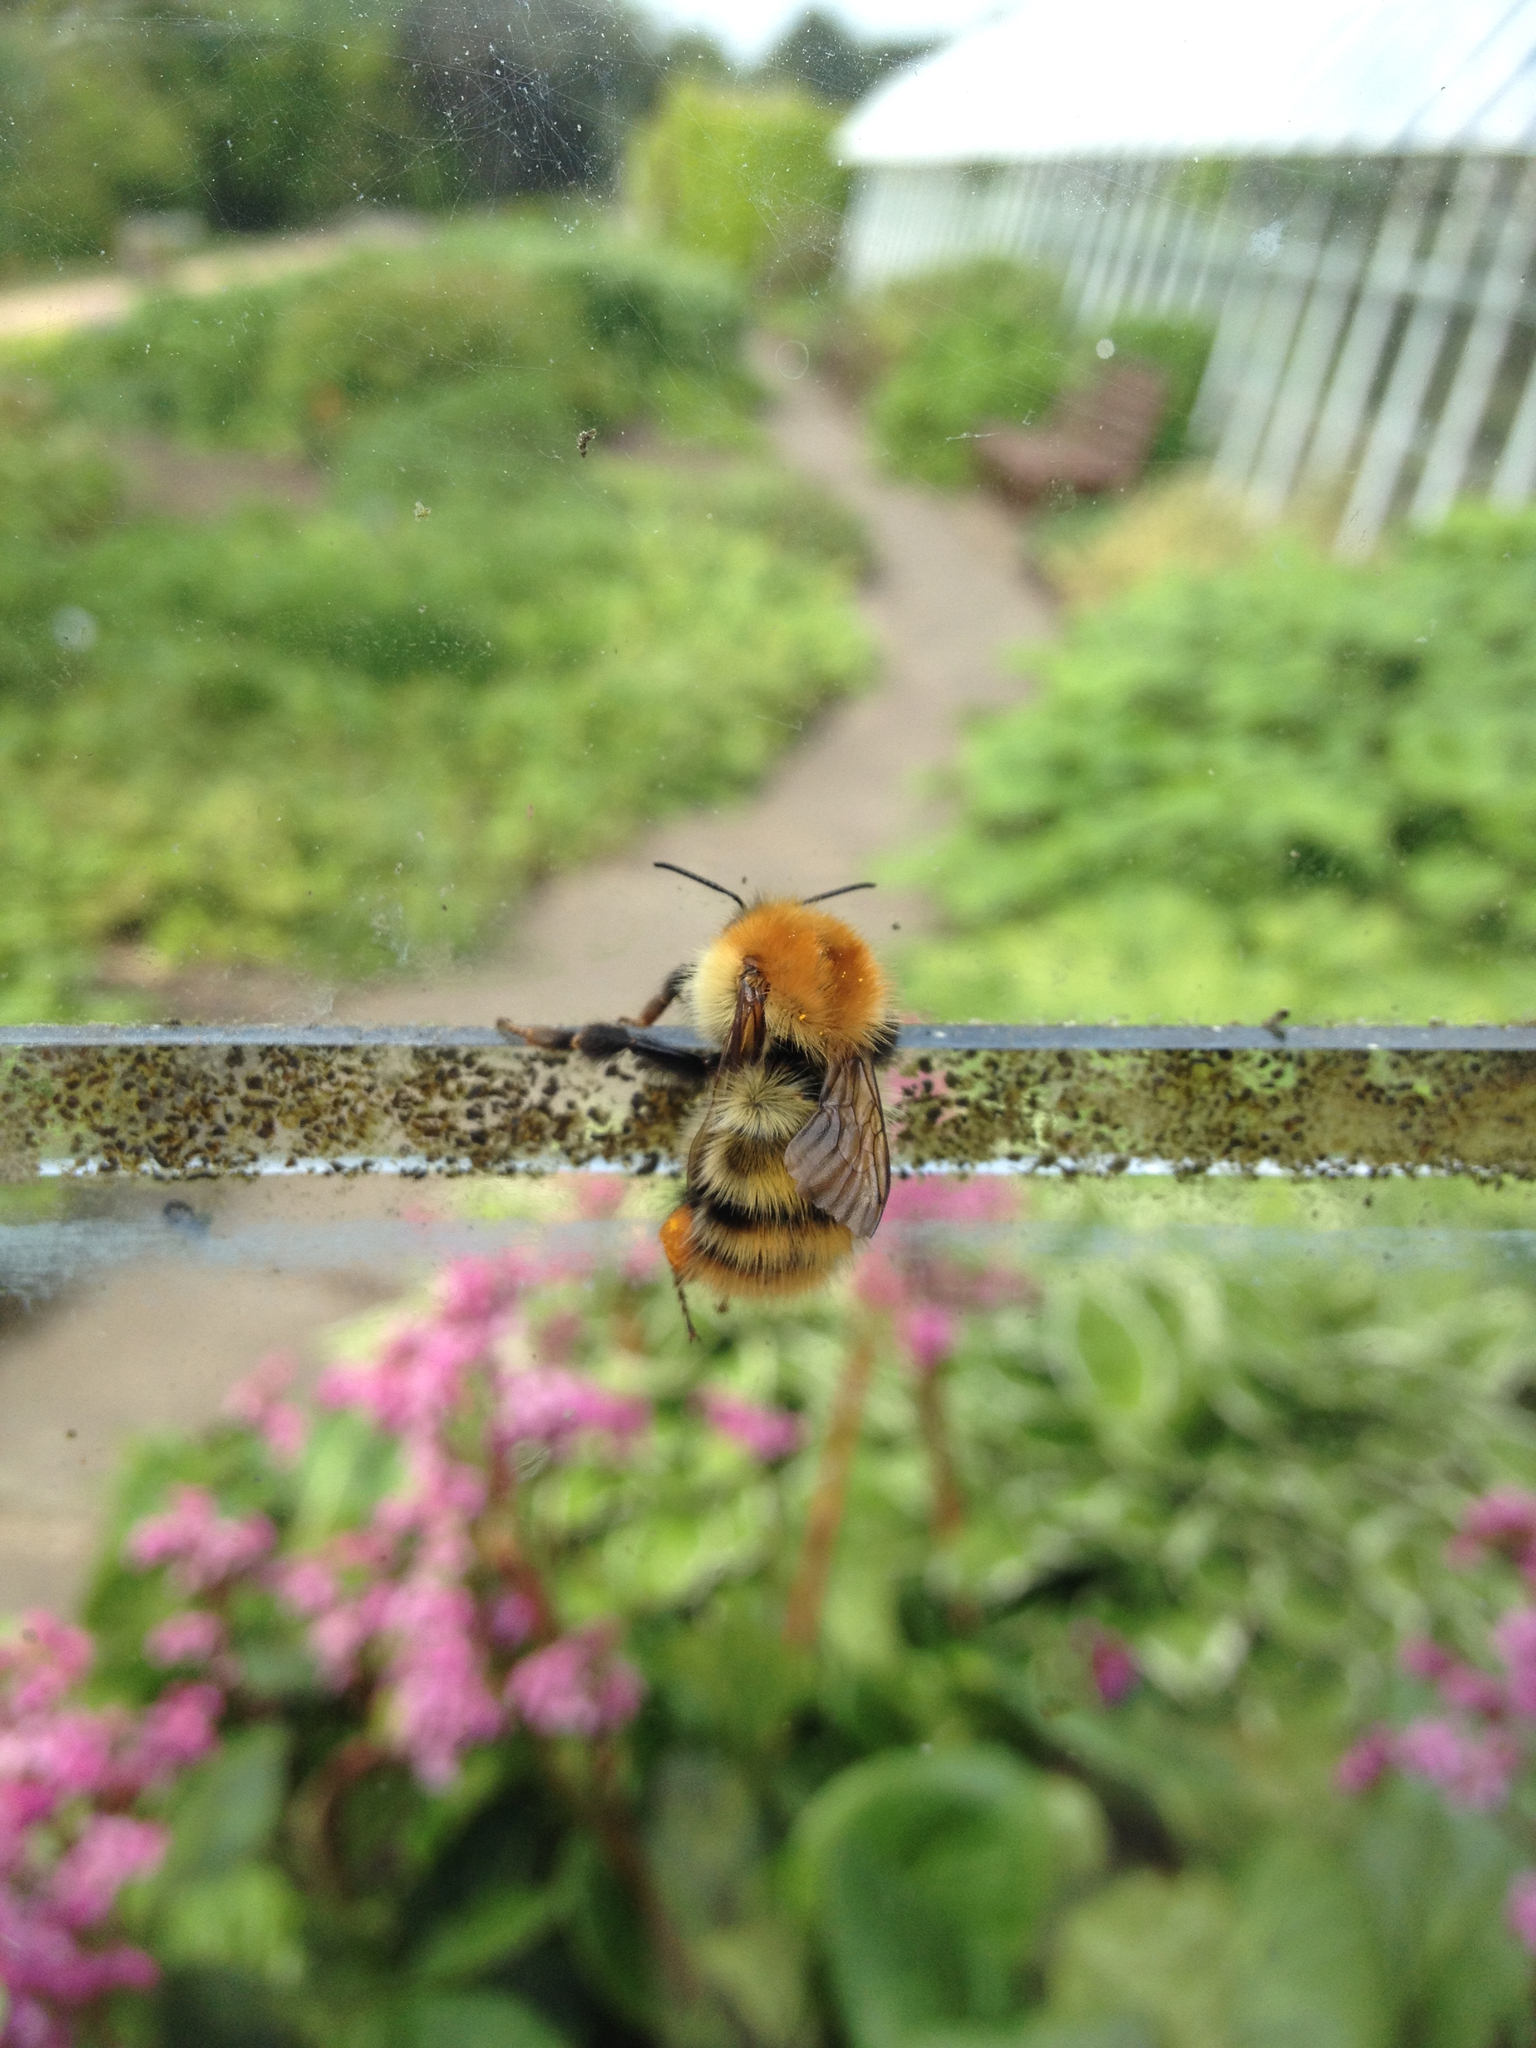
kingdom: Animalia
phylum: Arthropoda
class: Insecta
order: Hymenoptera
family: Apidae
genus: Bombus
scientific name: Bombus pascuorum
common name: Common carder bee
